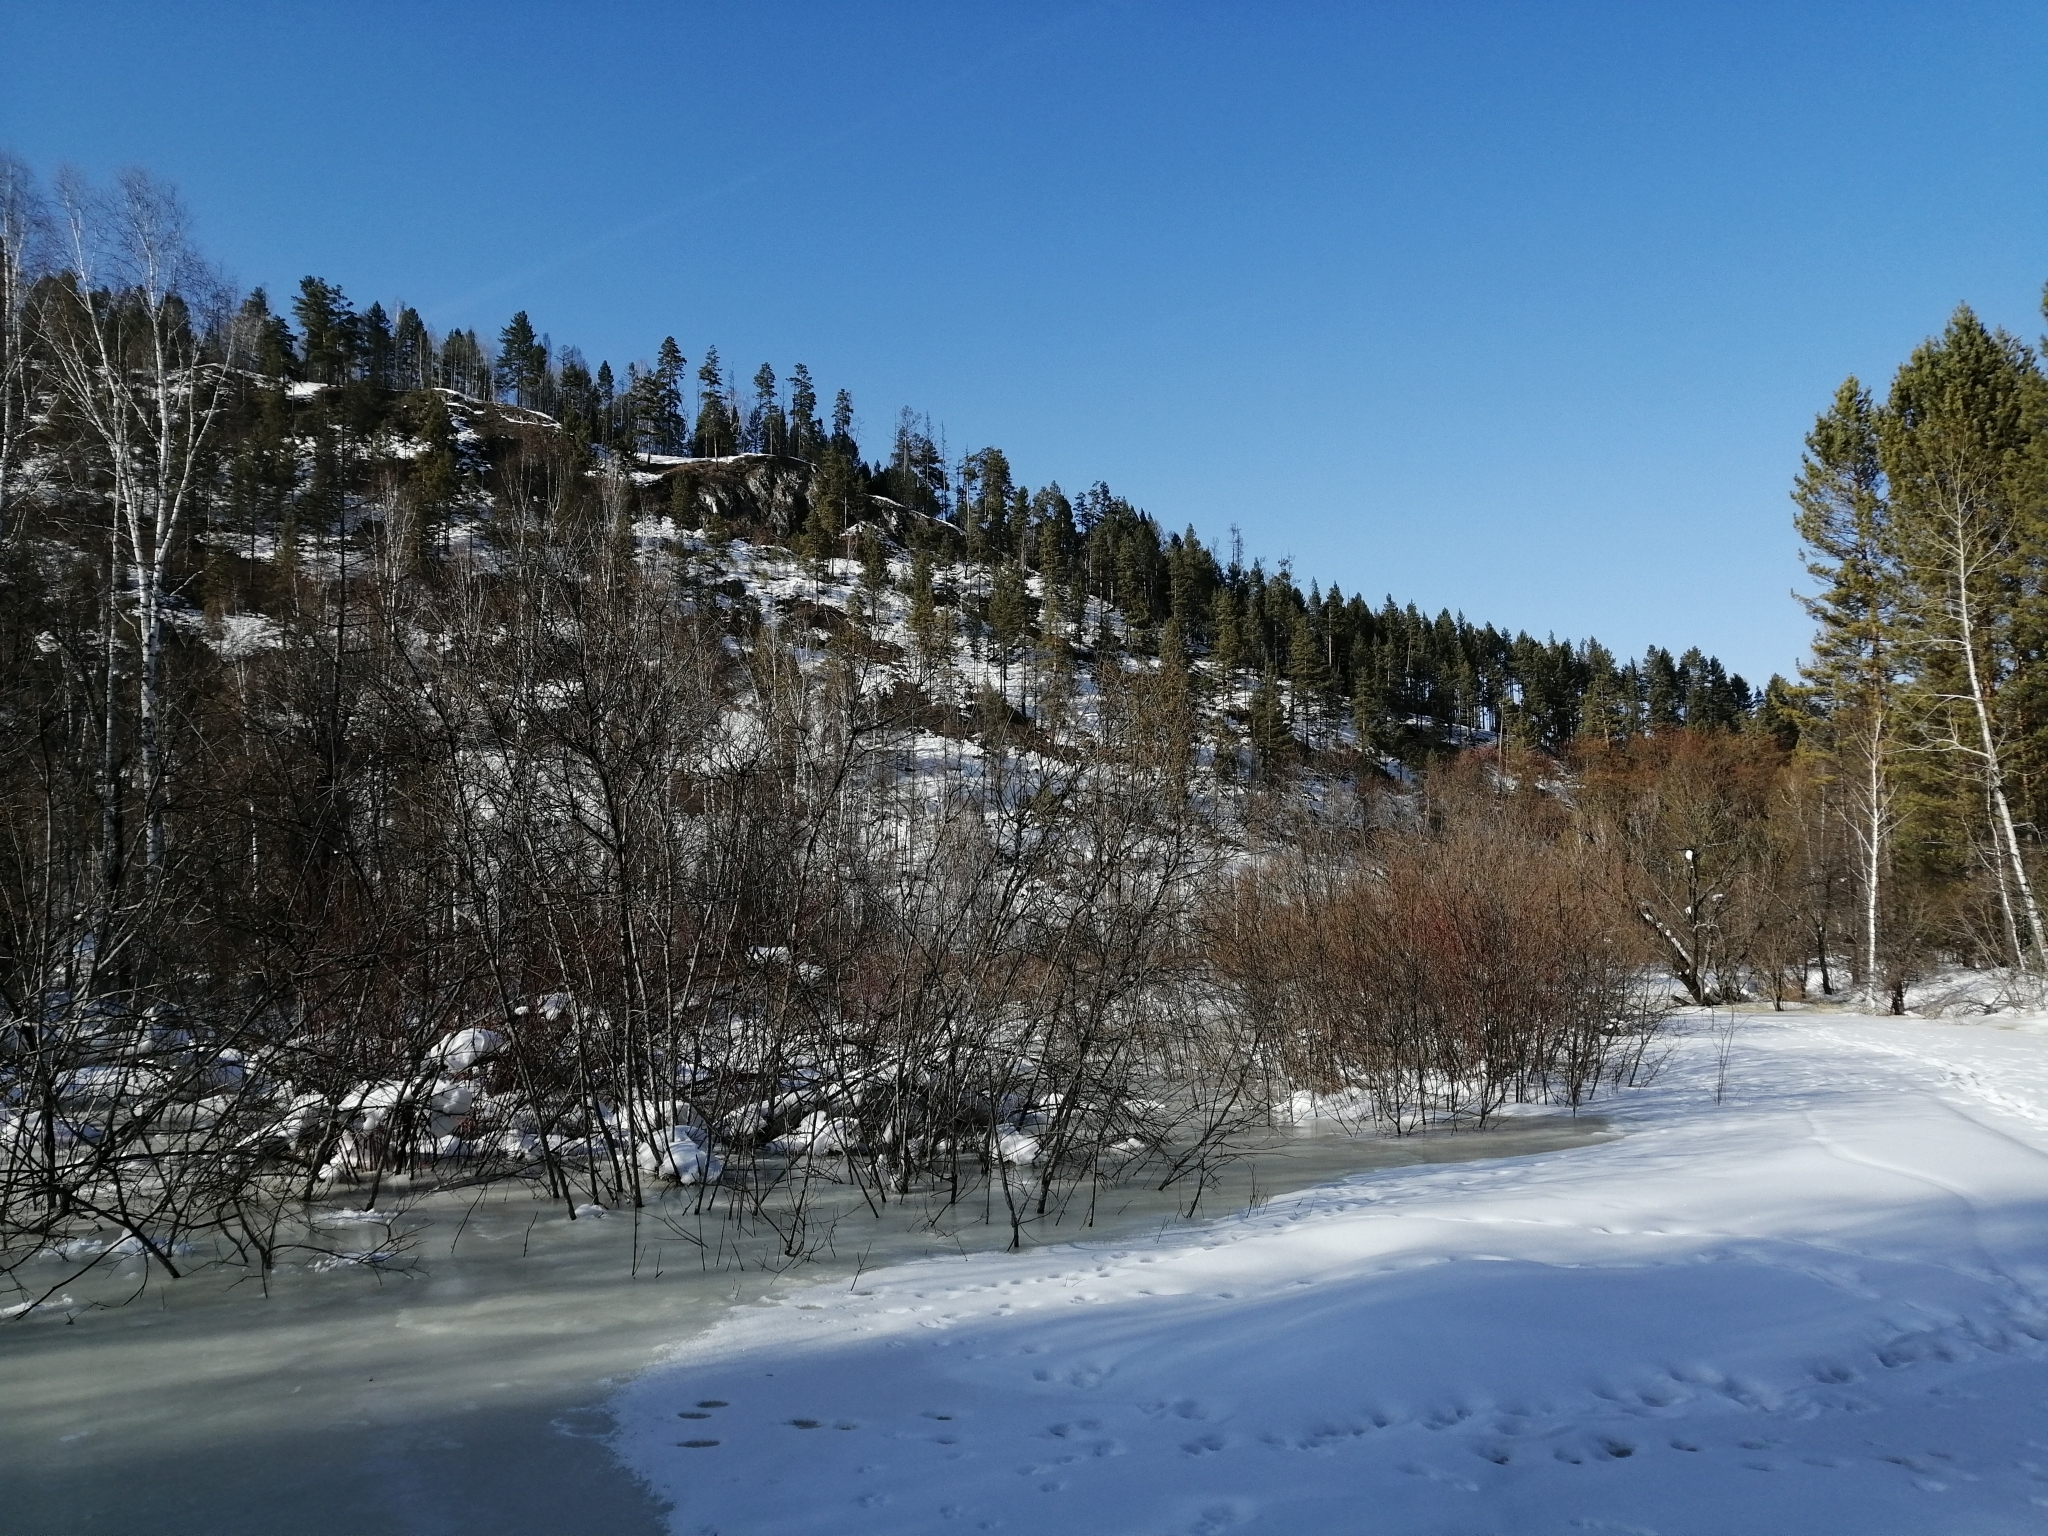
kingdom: Plantae
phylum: Tracheophyta
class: Pinopsida
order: Pinales
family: Pinaceae
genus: Pinus
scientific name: Pinus sylvestris
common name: Scots pine
